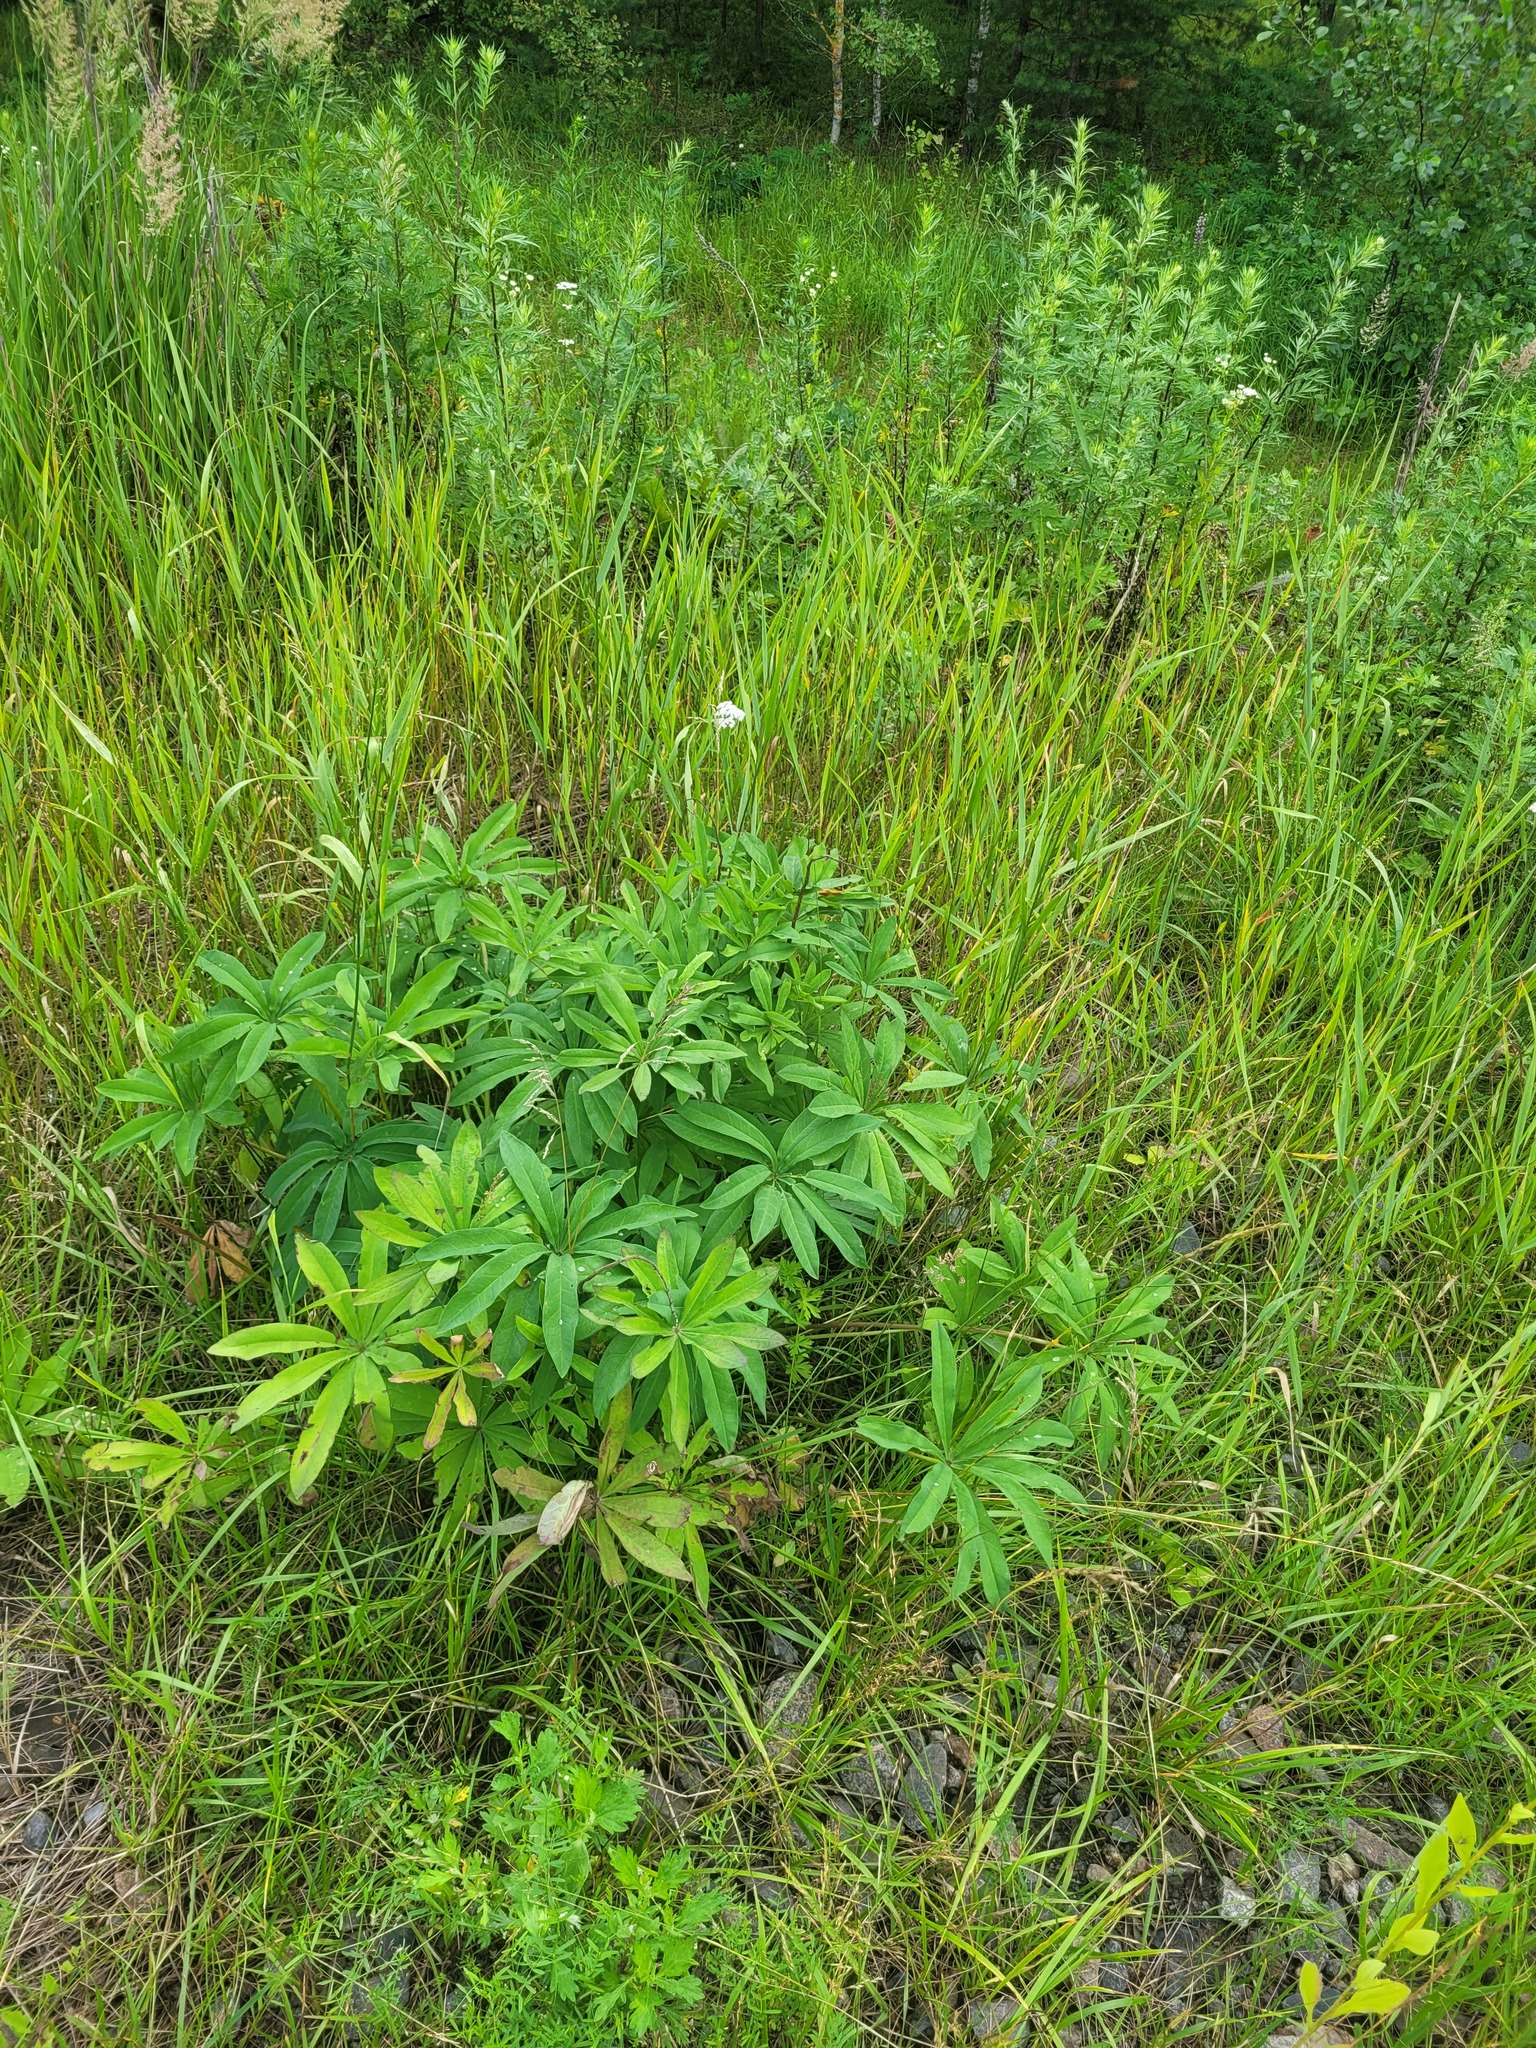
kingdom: Plantae
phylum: Tracheophyta
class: Magnoliopsida
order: Fabales
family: Fabaceae
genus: Lupinus
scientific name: Lupinus polyphyllus
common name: Garden lupin
